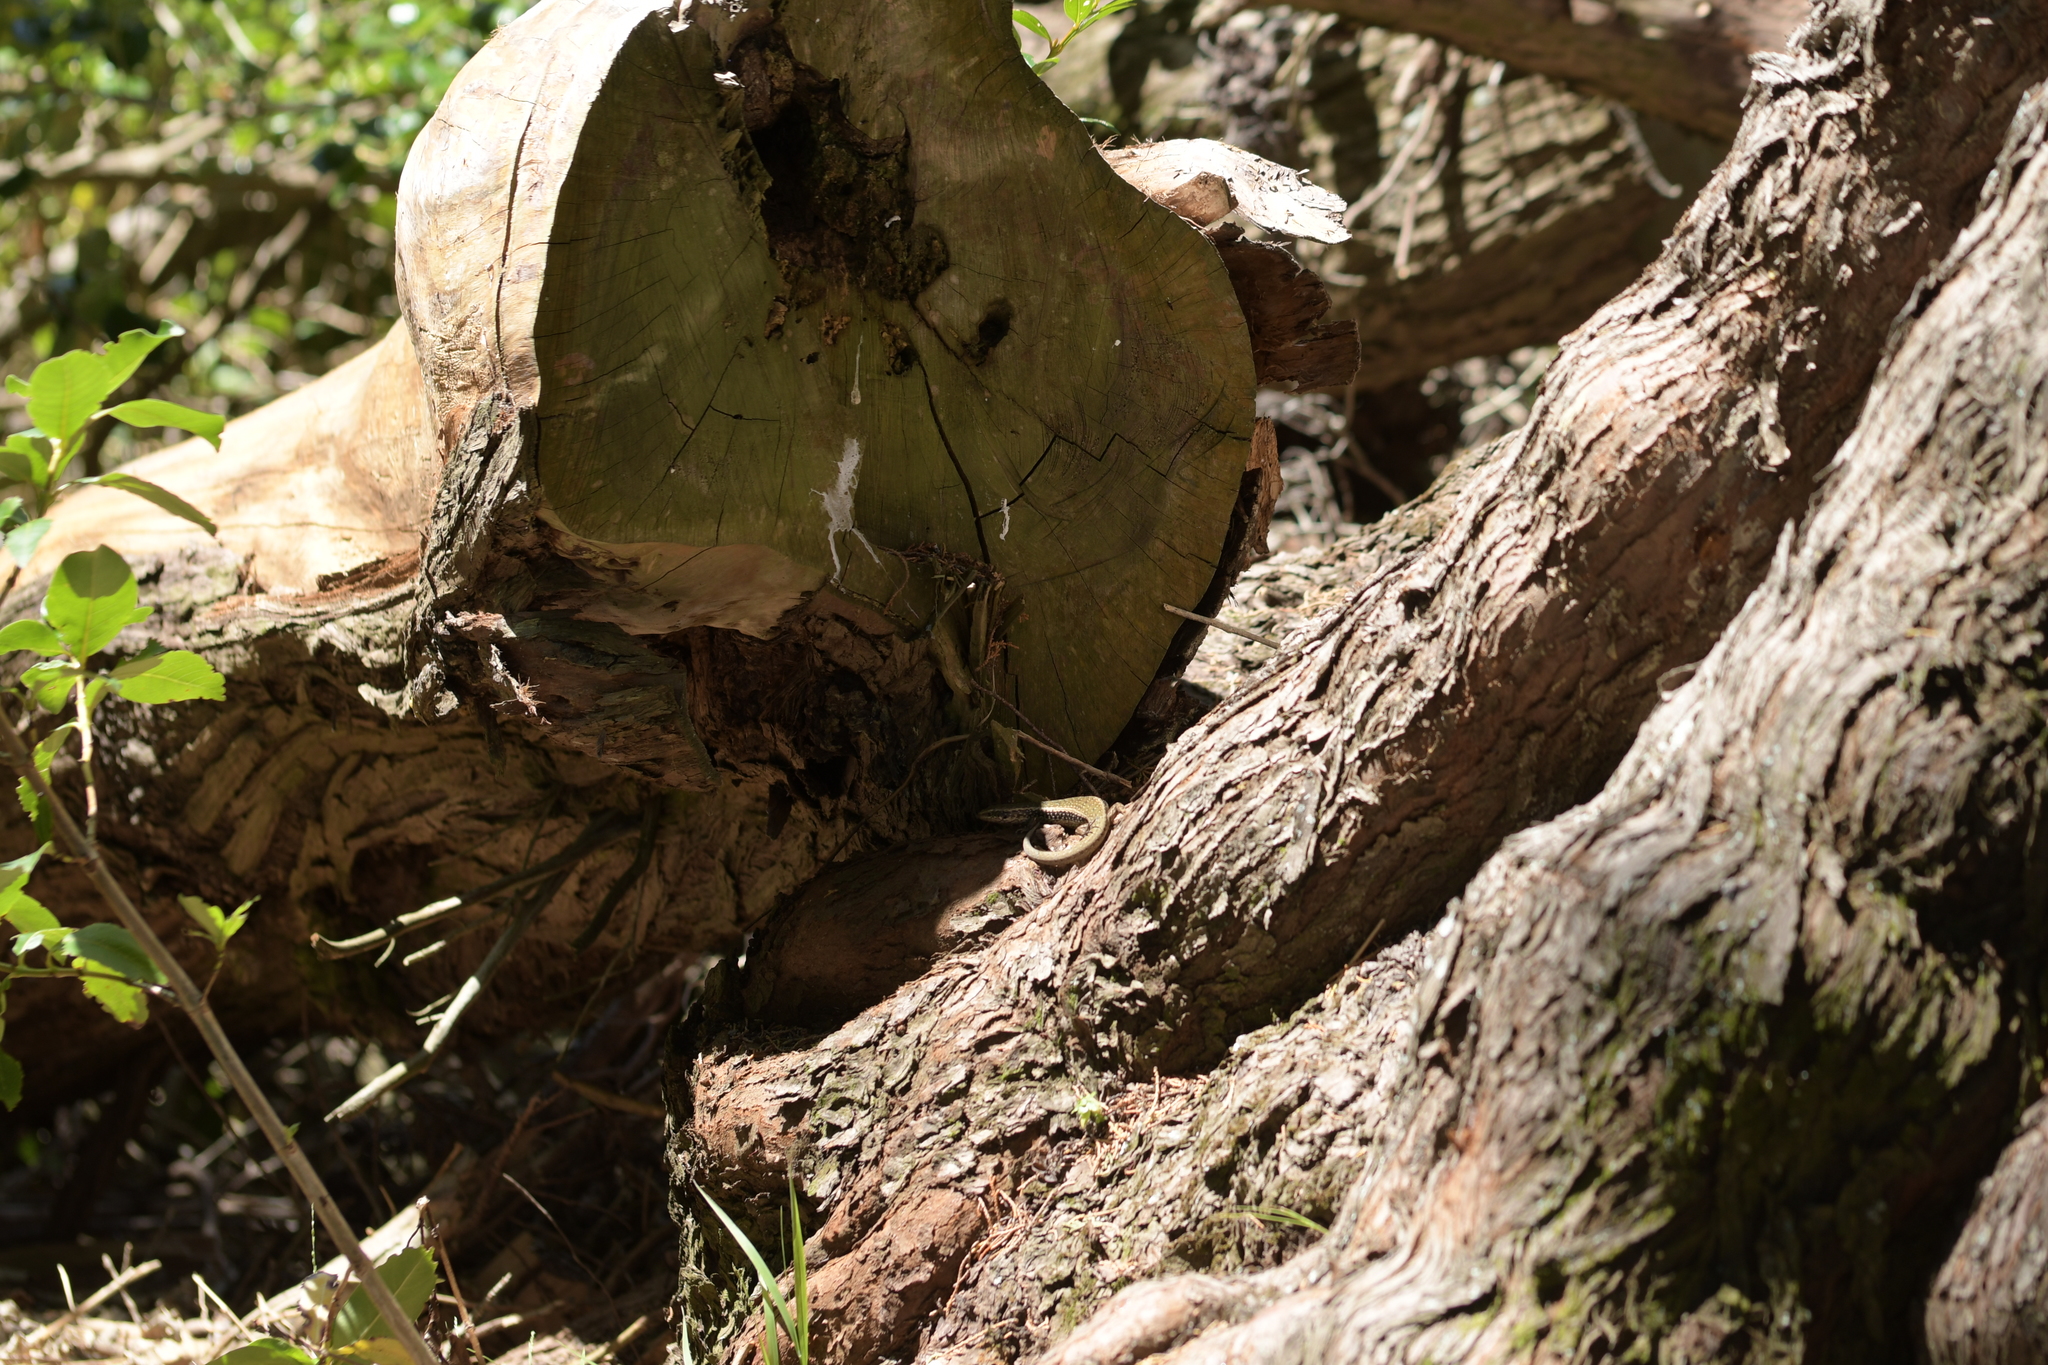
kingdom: Animalia
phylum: Chordata
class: Squamata
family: Scincidae
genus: Oligosoma
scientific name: Oligosoma kokowai
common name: Northern spotted skink
